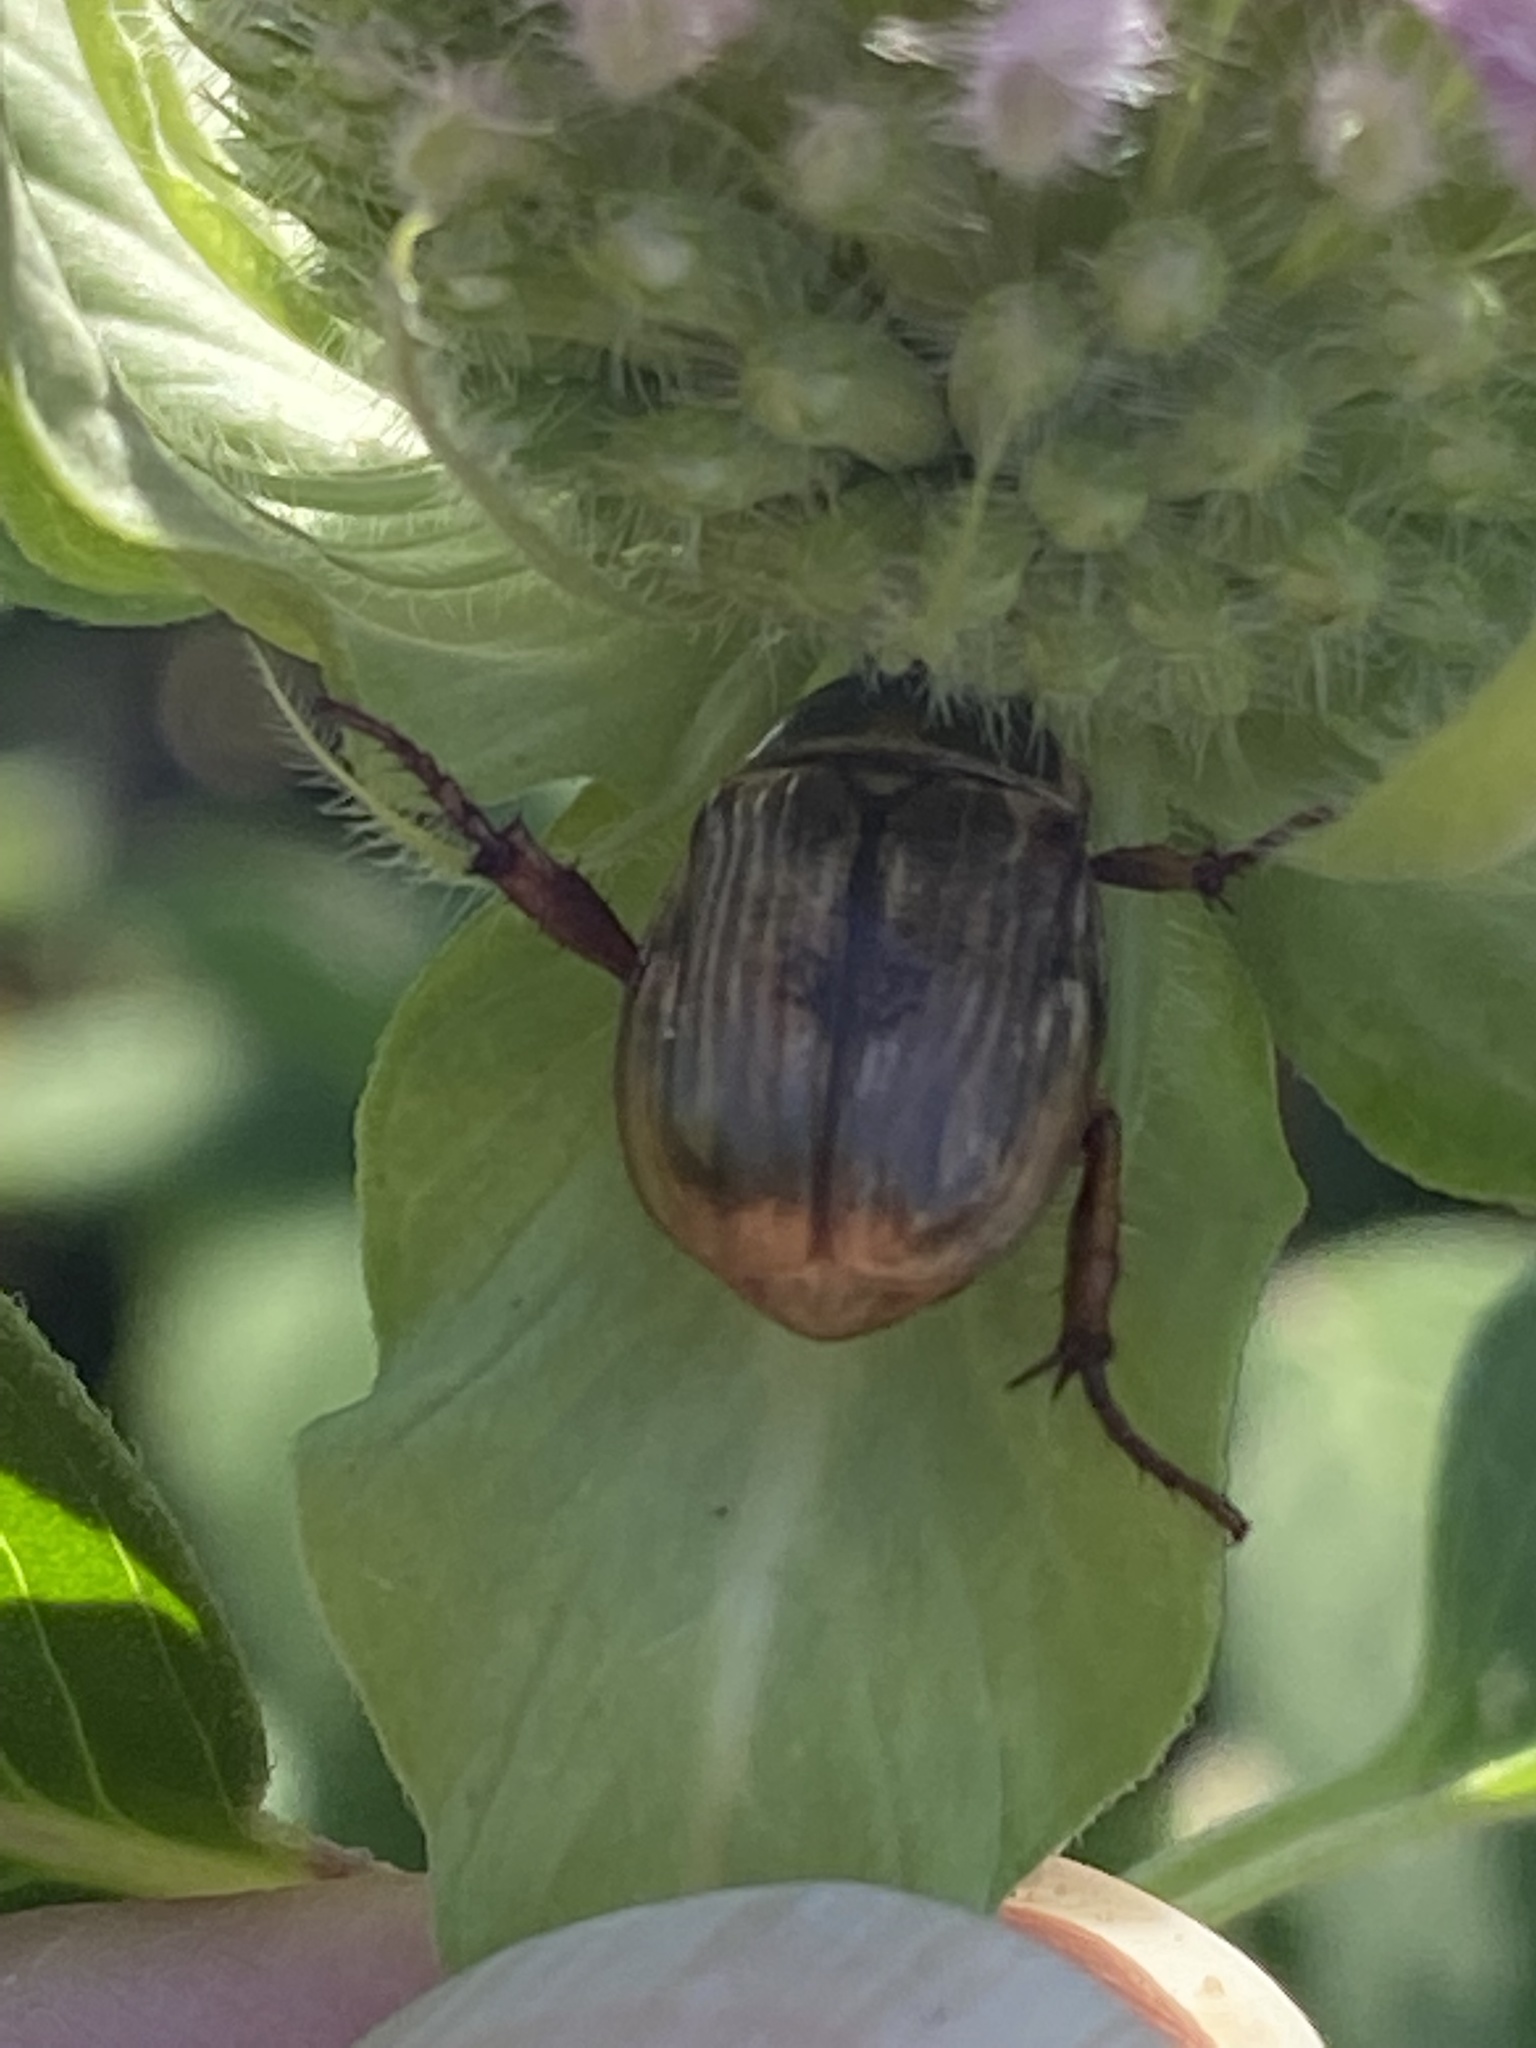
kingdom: Animalia
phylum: Arthropoda
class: Insecta
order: Coleoptera
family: Scarabaeidae
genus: Exomala
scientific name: Exomala orientalis
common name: Oriental beetle
